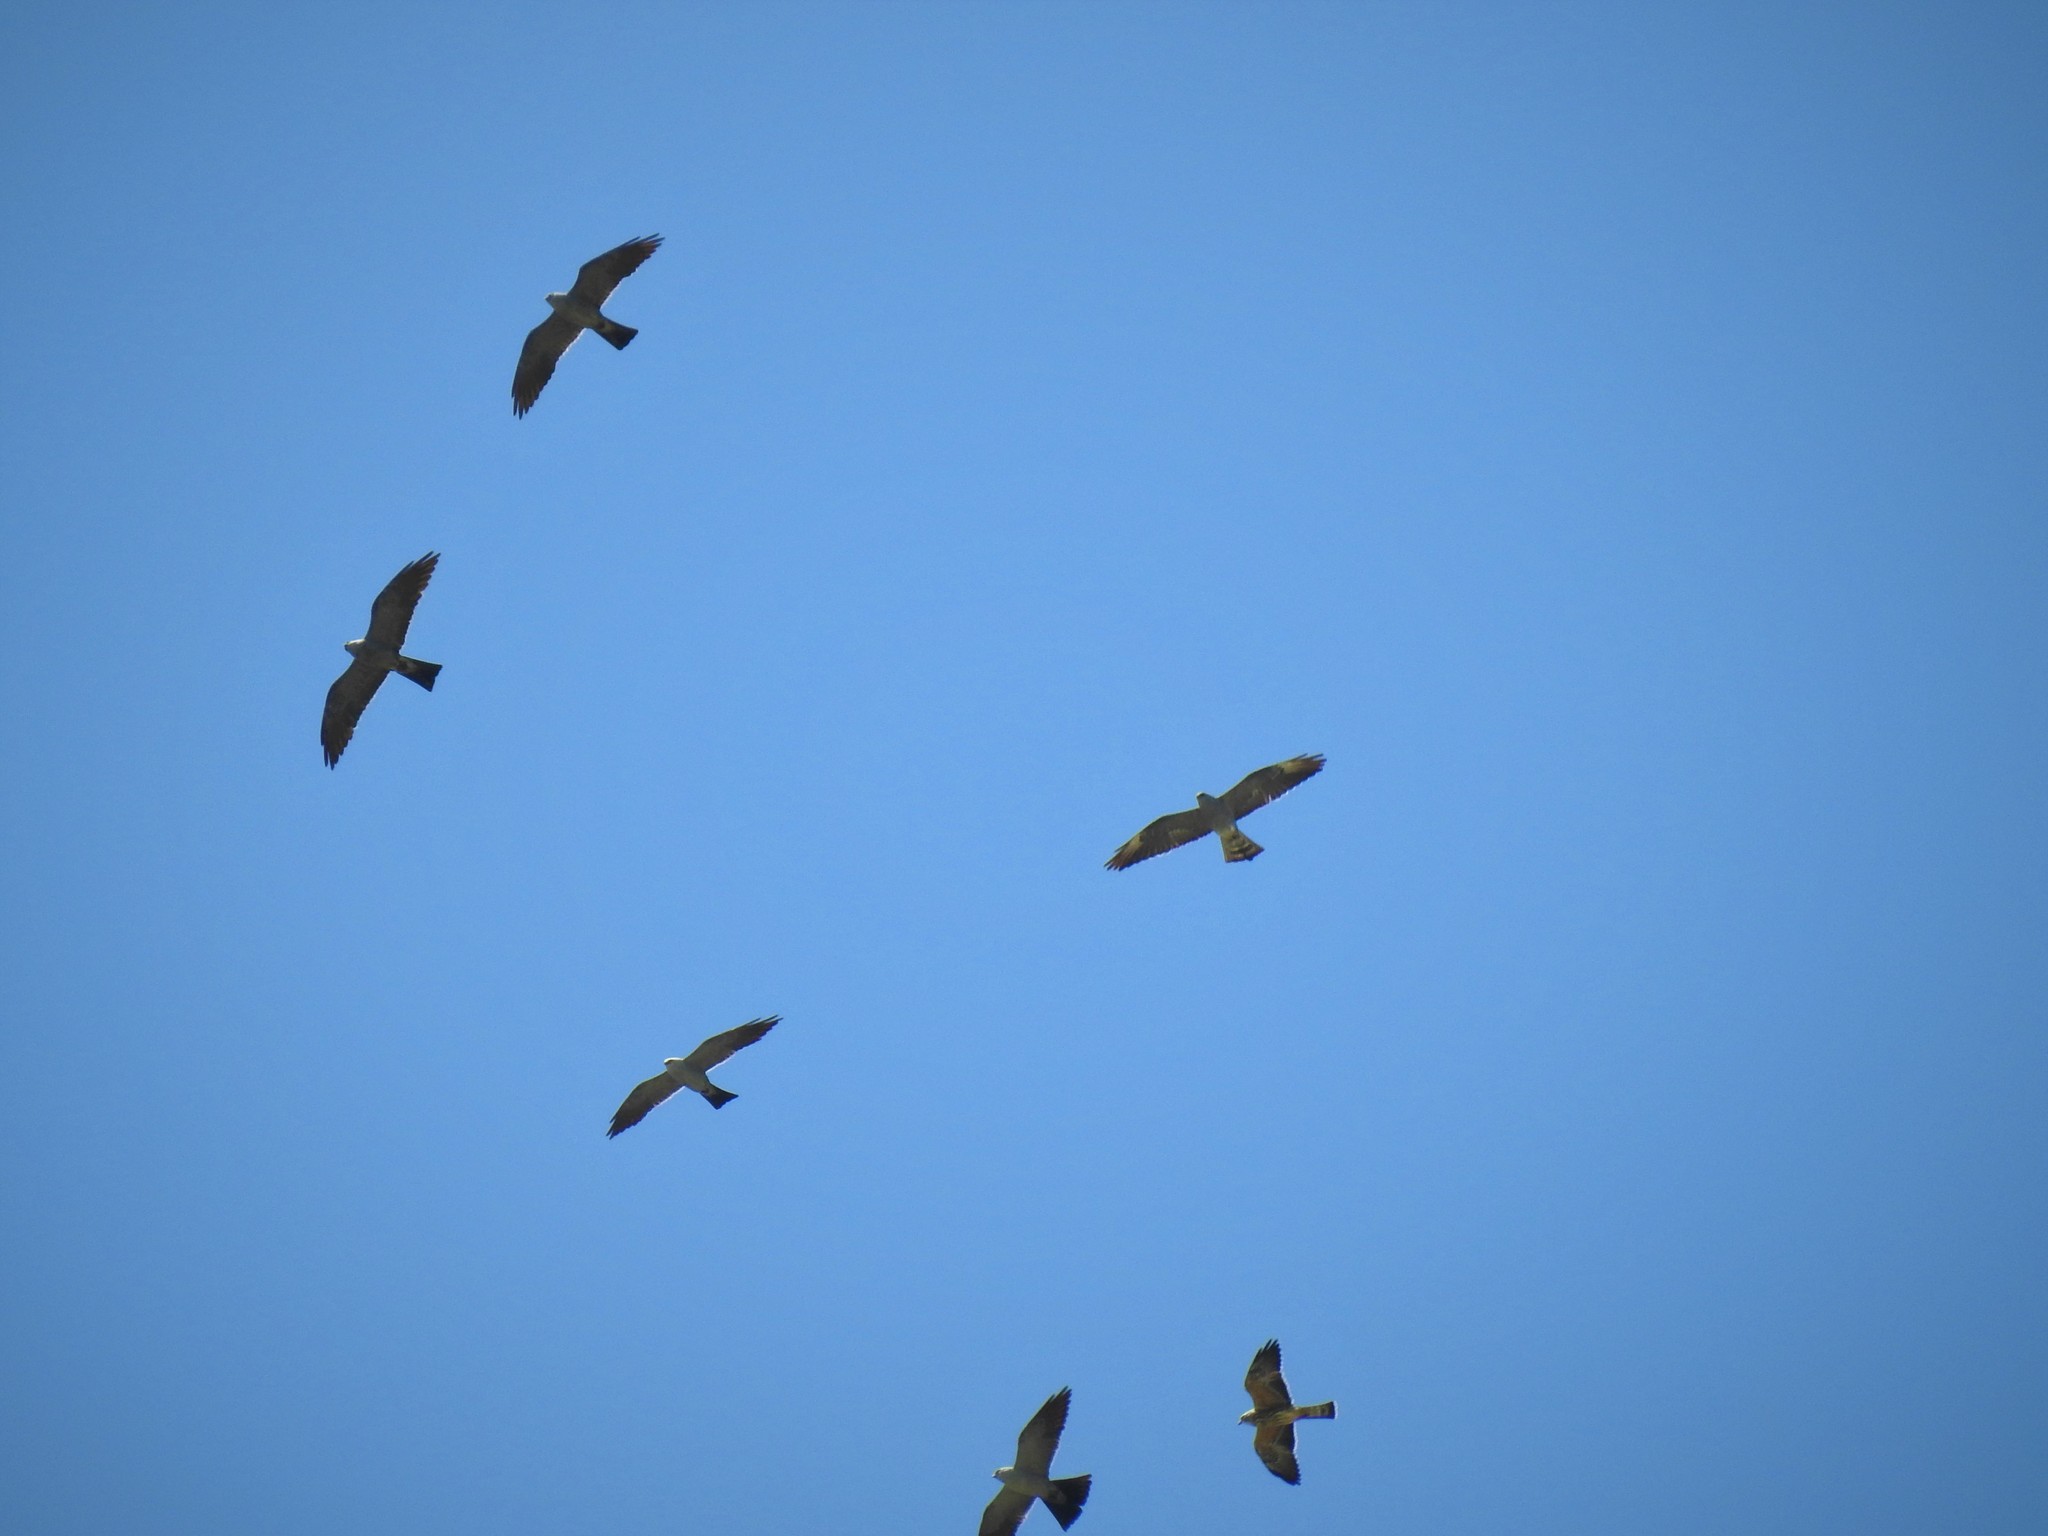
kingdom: Animalia
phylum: Chordata
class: Aves
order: Accipitriformes
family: Accipitridae
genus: Ictinia
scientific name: Ictinia mississippiensis
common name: Mississippi kite
